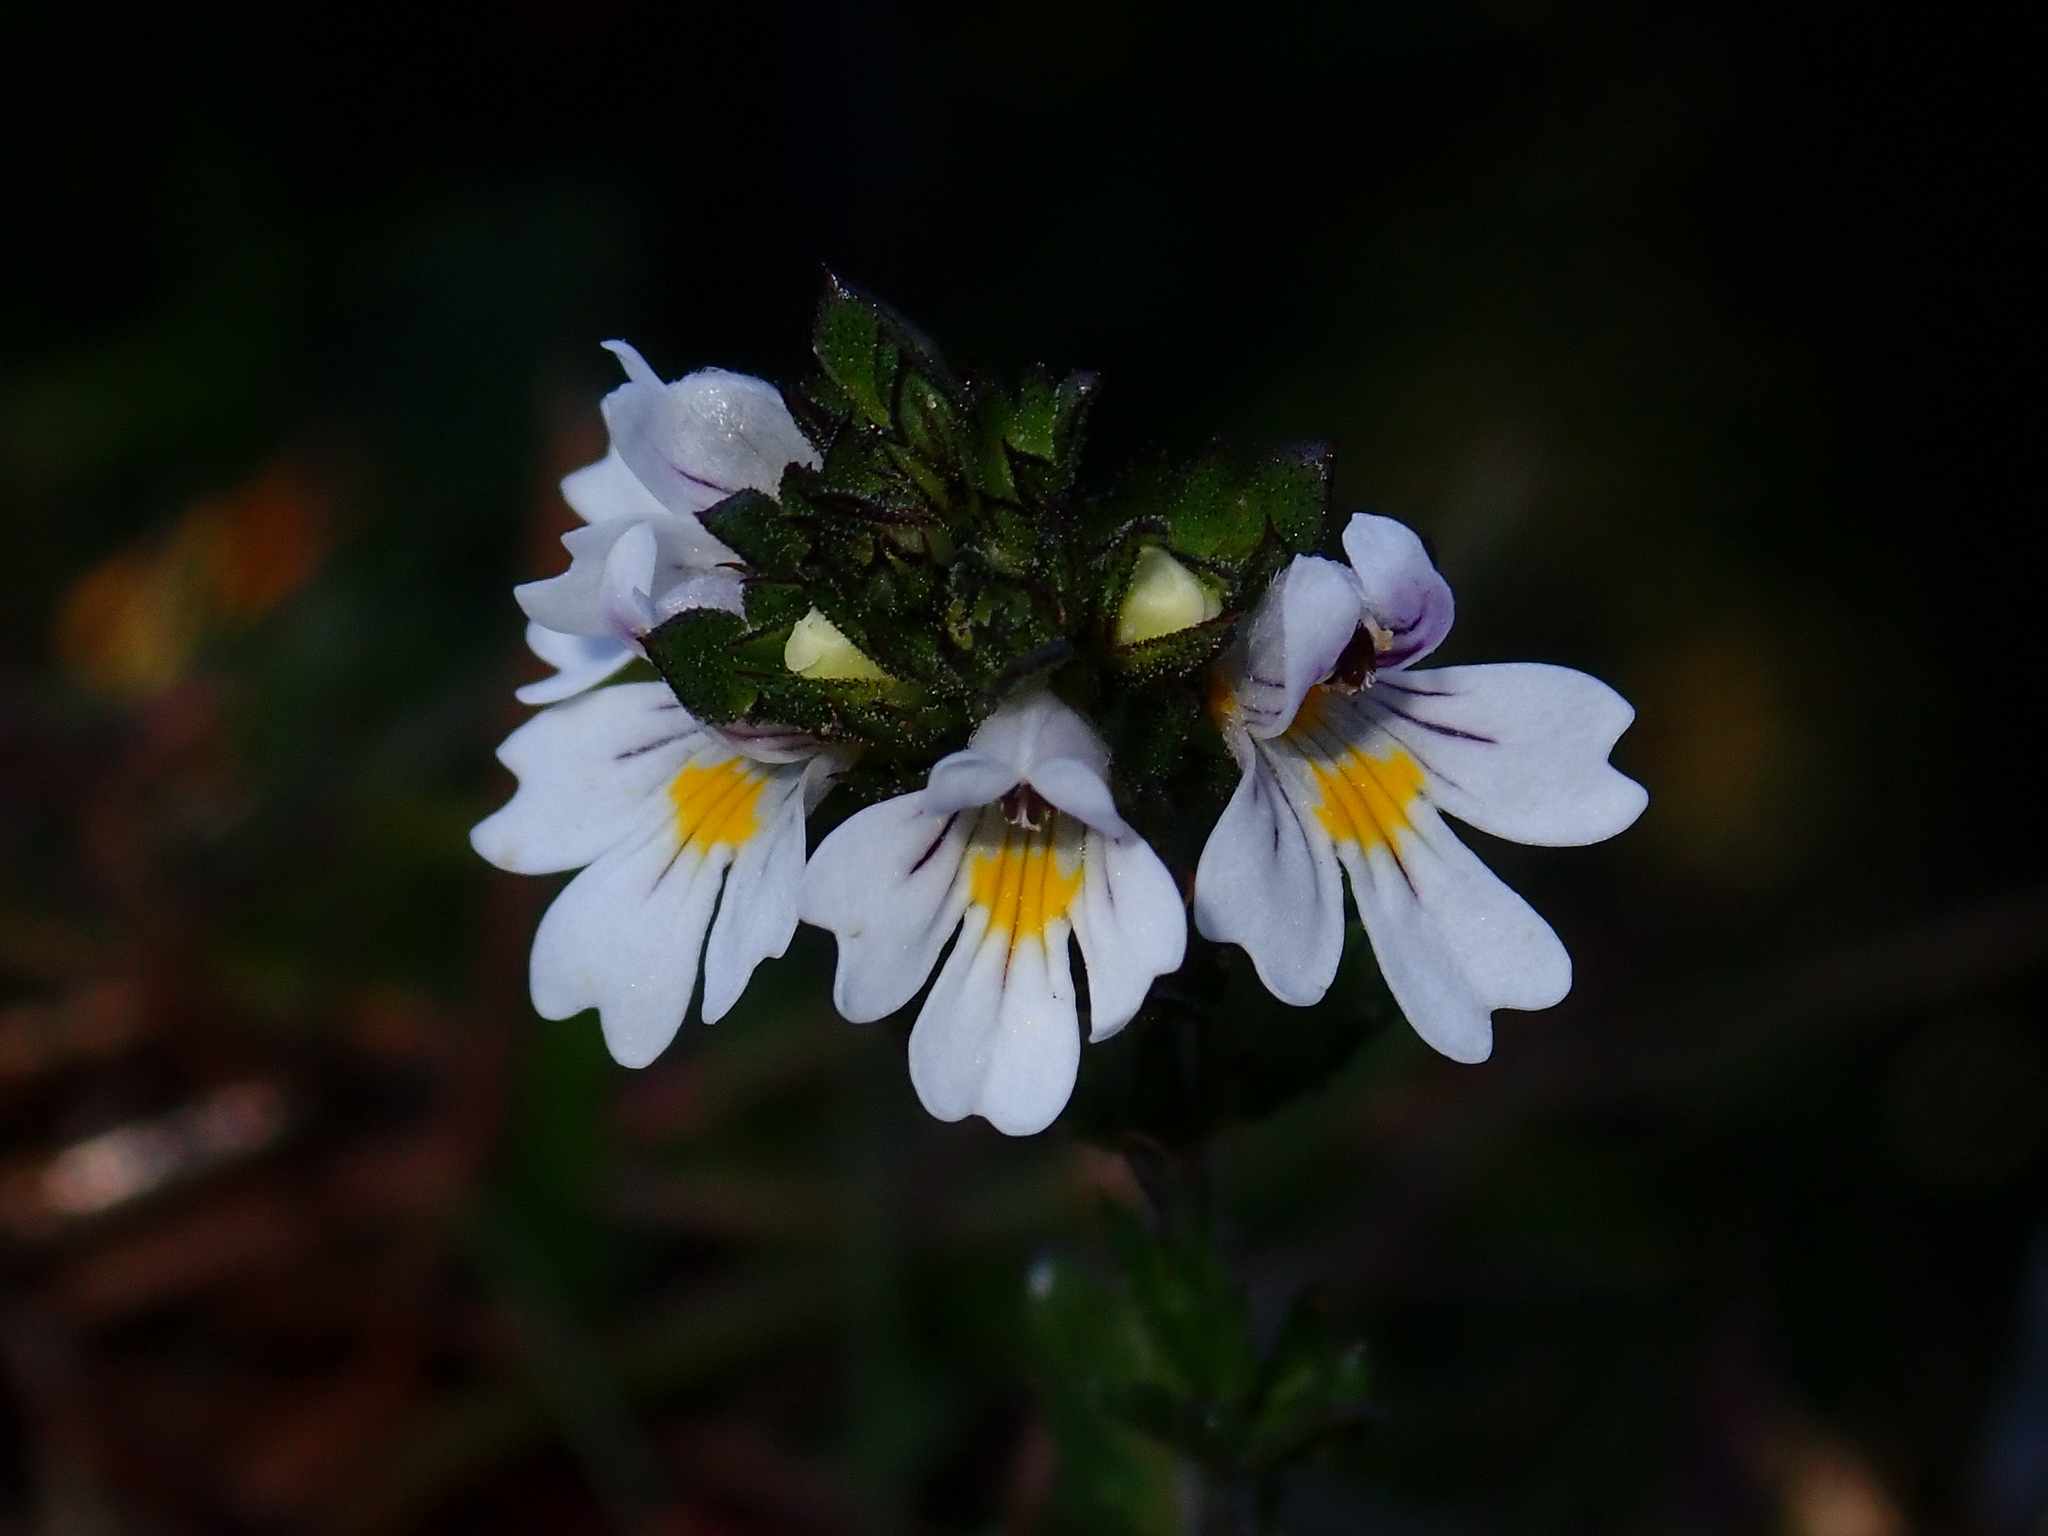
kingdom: Plantae
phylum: Tracheophyta
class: Magnoliopsida
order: Lamiales
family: Orobanchaceae
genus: Euphrasia
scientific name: Euphrasia officinalis
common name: Eyebright
